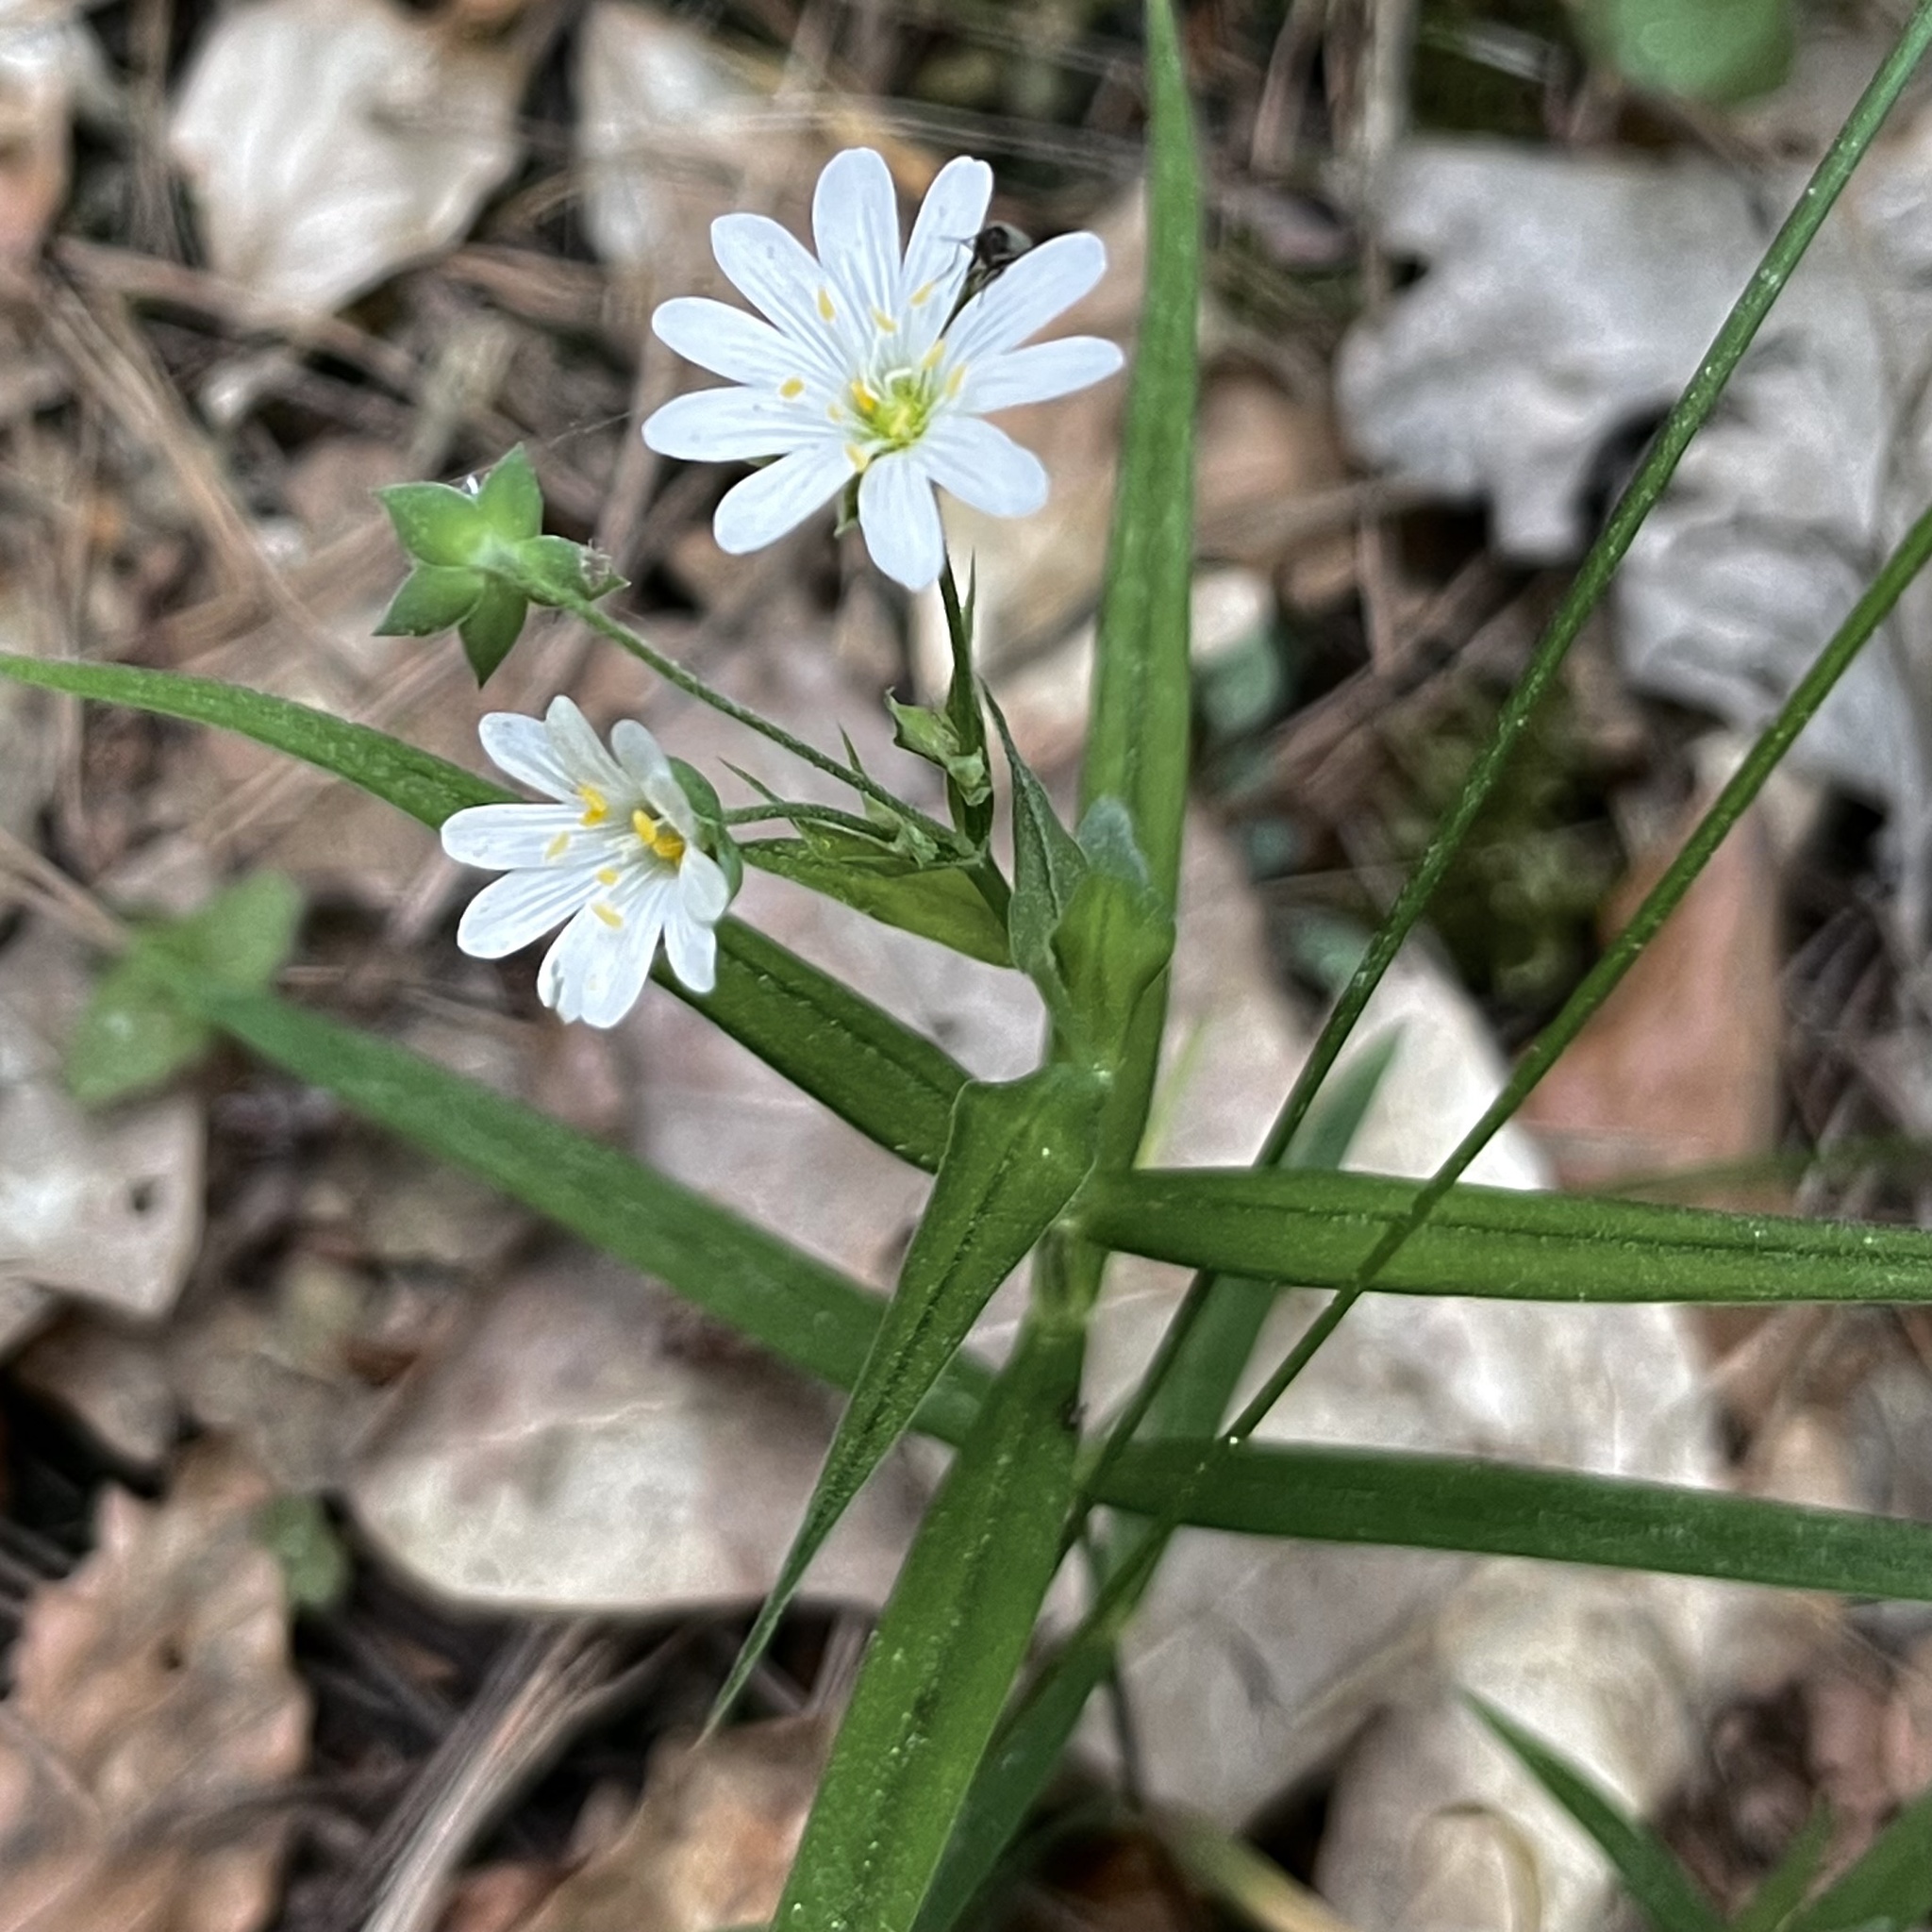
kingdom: Plantae
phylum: Tracheophyta
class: Magnoliopsida
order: Caryophyllales
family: Caryophyllaceae
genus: Rabelera
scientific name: Rabelera holostea
